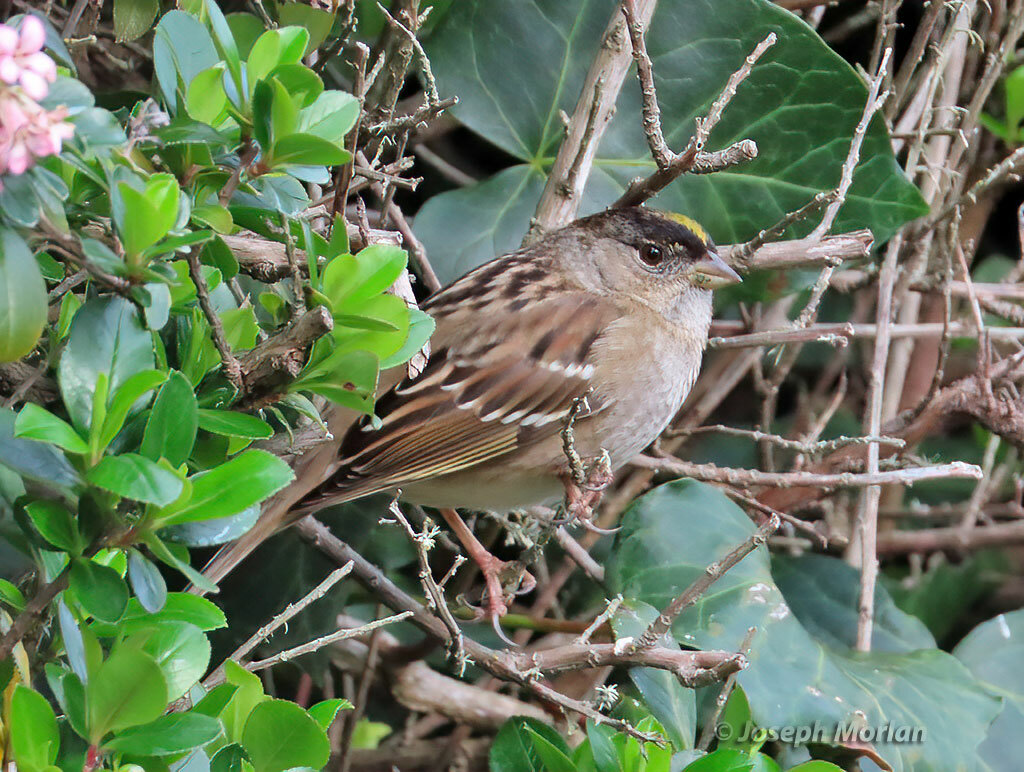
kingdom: Animalia
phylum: Chordata
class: Aves
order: Passeriformes
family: Passerellidae
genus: Zonotrichia
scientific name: Zonotrichia atricapilla
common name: Golden-crowned sparrow
